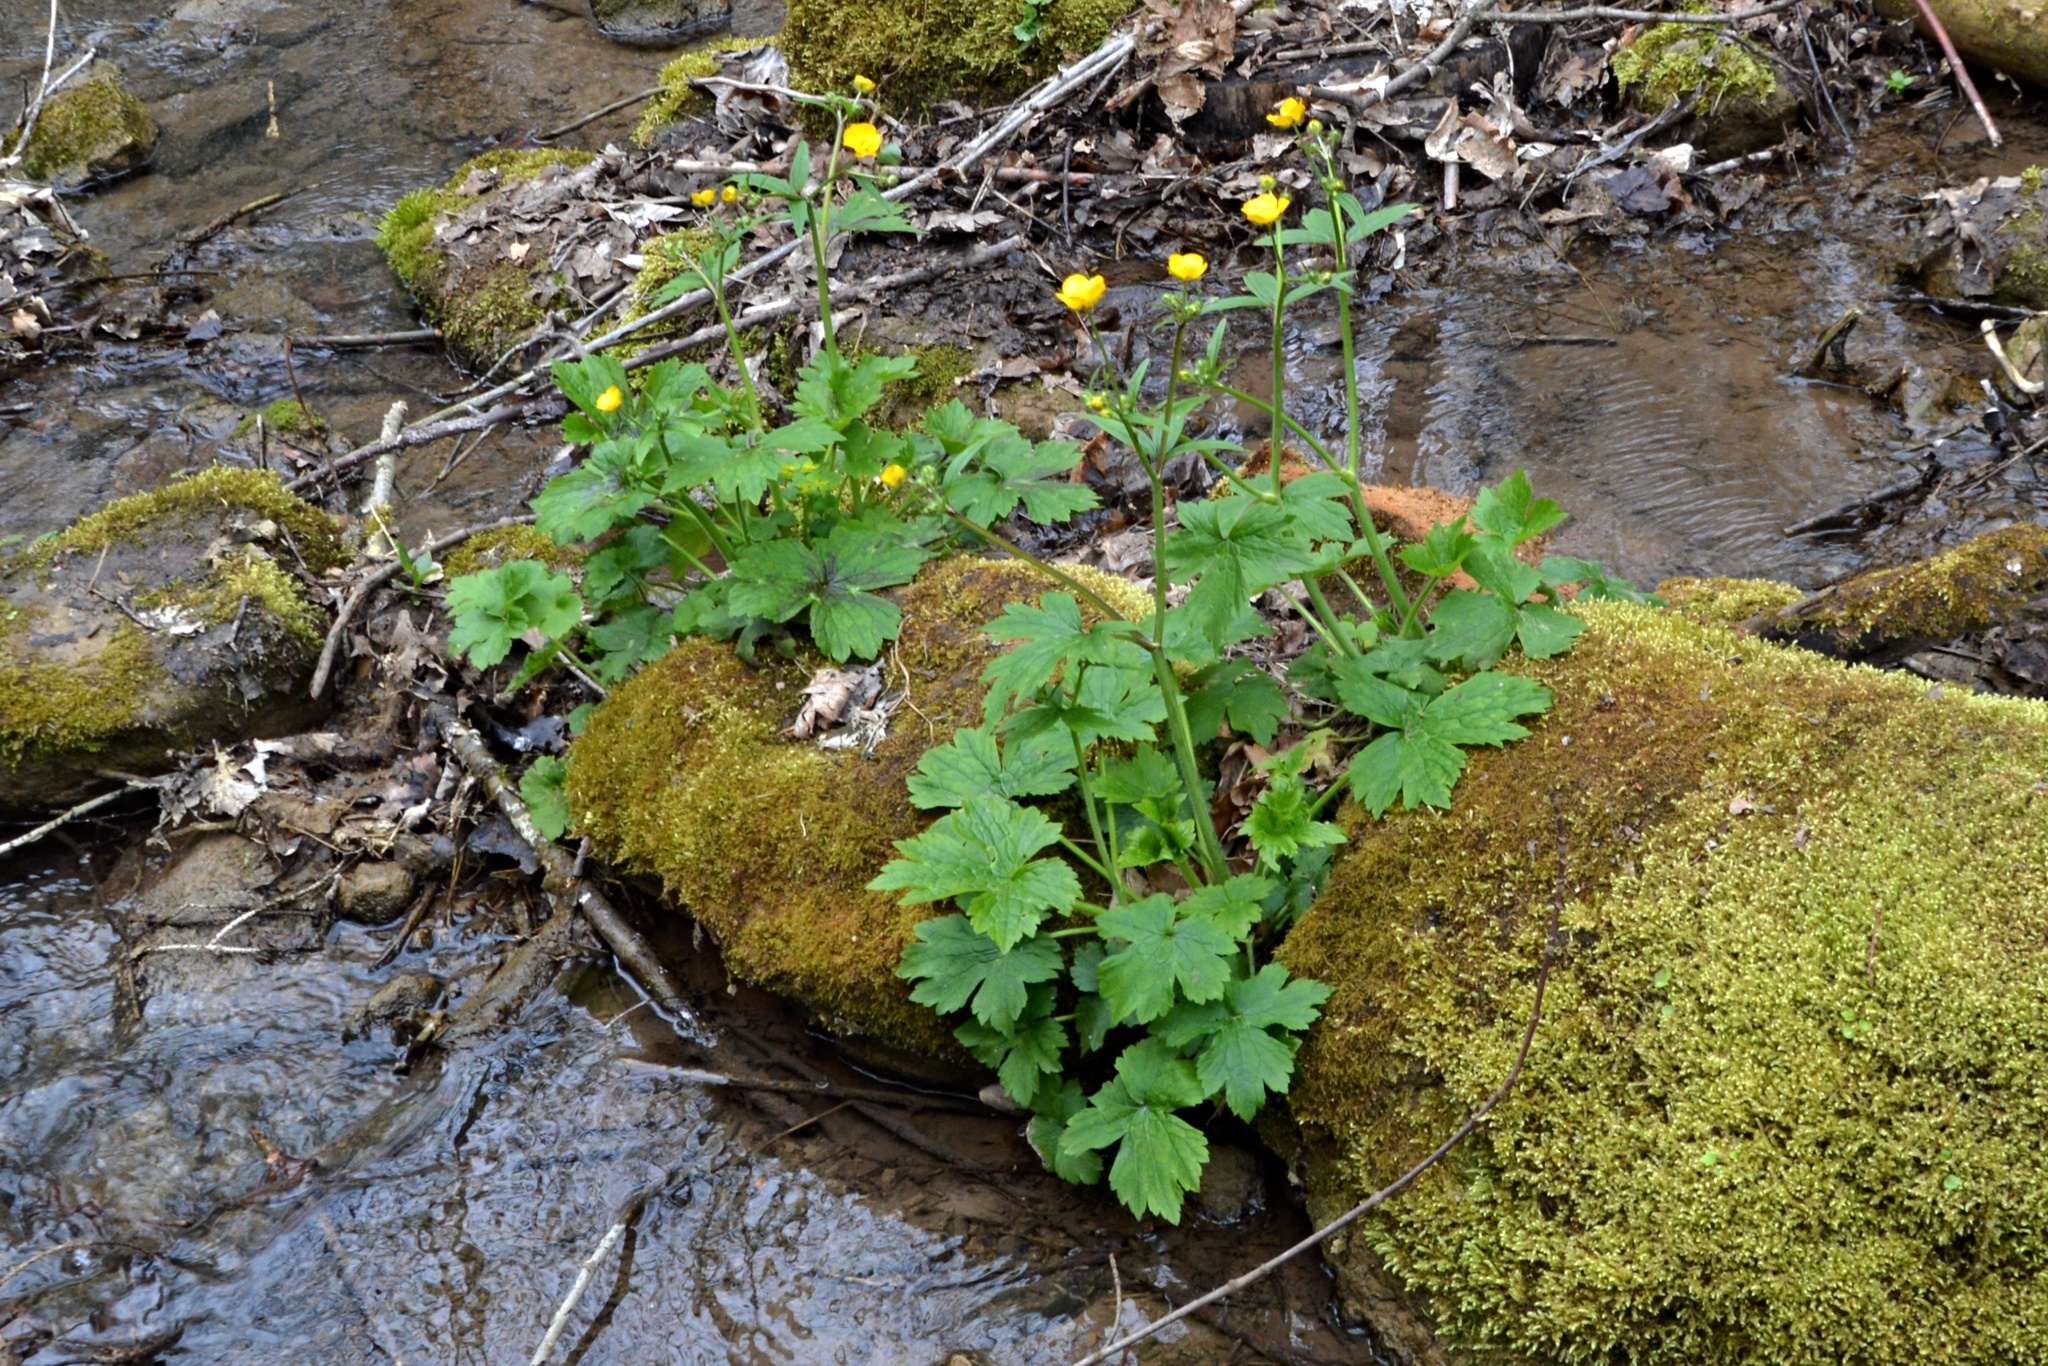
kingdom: Plantae
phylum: Tracheophyta
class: Magnoliopsida
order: Ranunculales
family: Ranunculaceae
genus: Caltha
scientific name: Caltha palustris
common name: Marsh marigold
